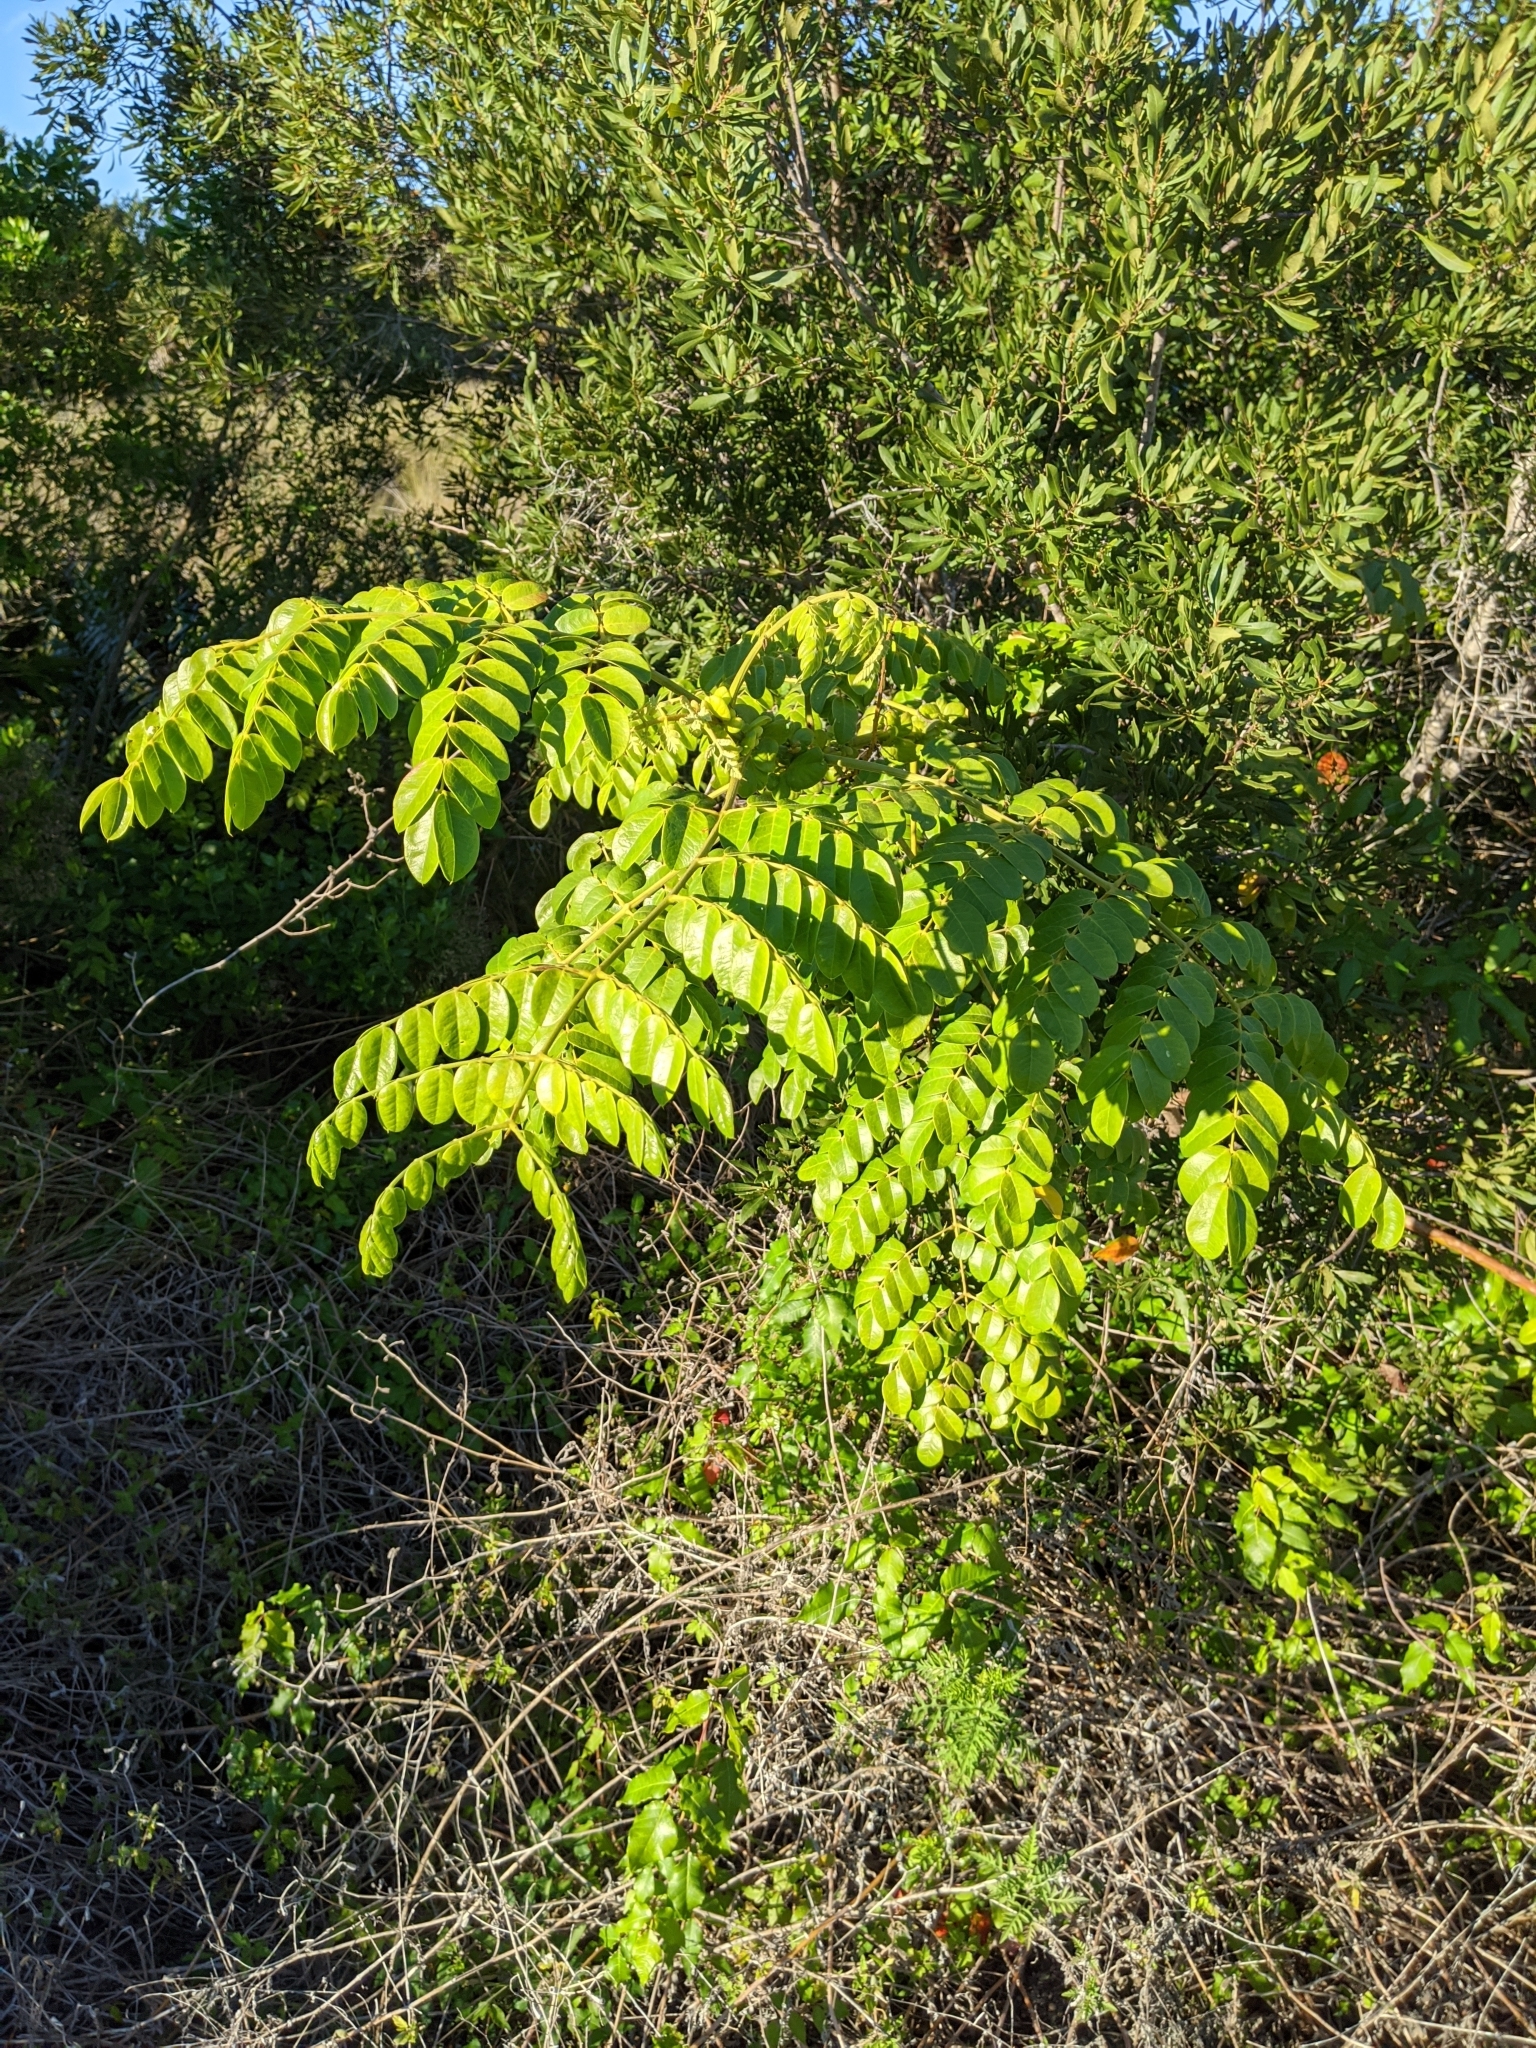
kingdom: Plantae
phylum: Tracheophyta
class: Magnoliopsida
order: Fabales
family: Fabaceae
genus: Guilandina
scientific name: Guilandina bonduc
